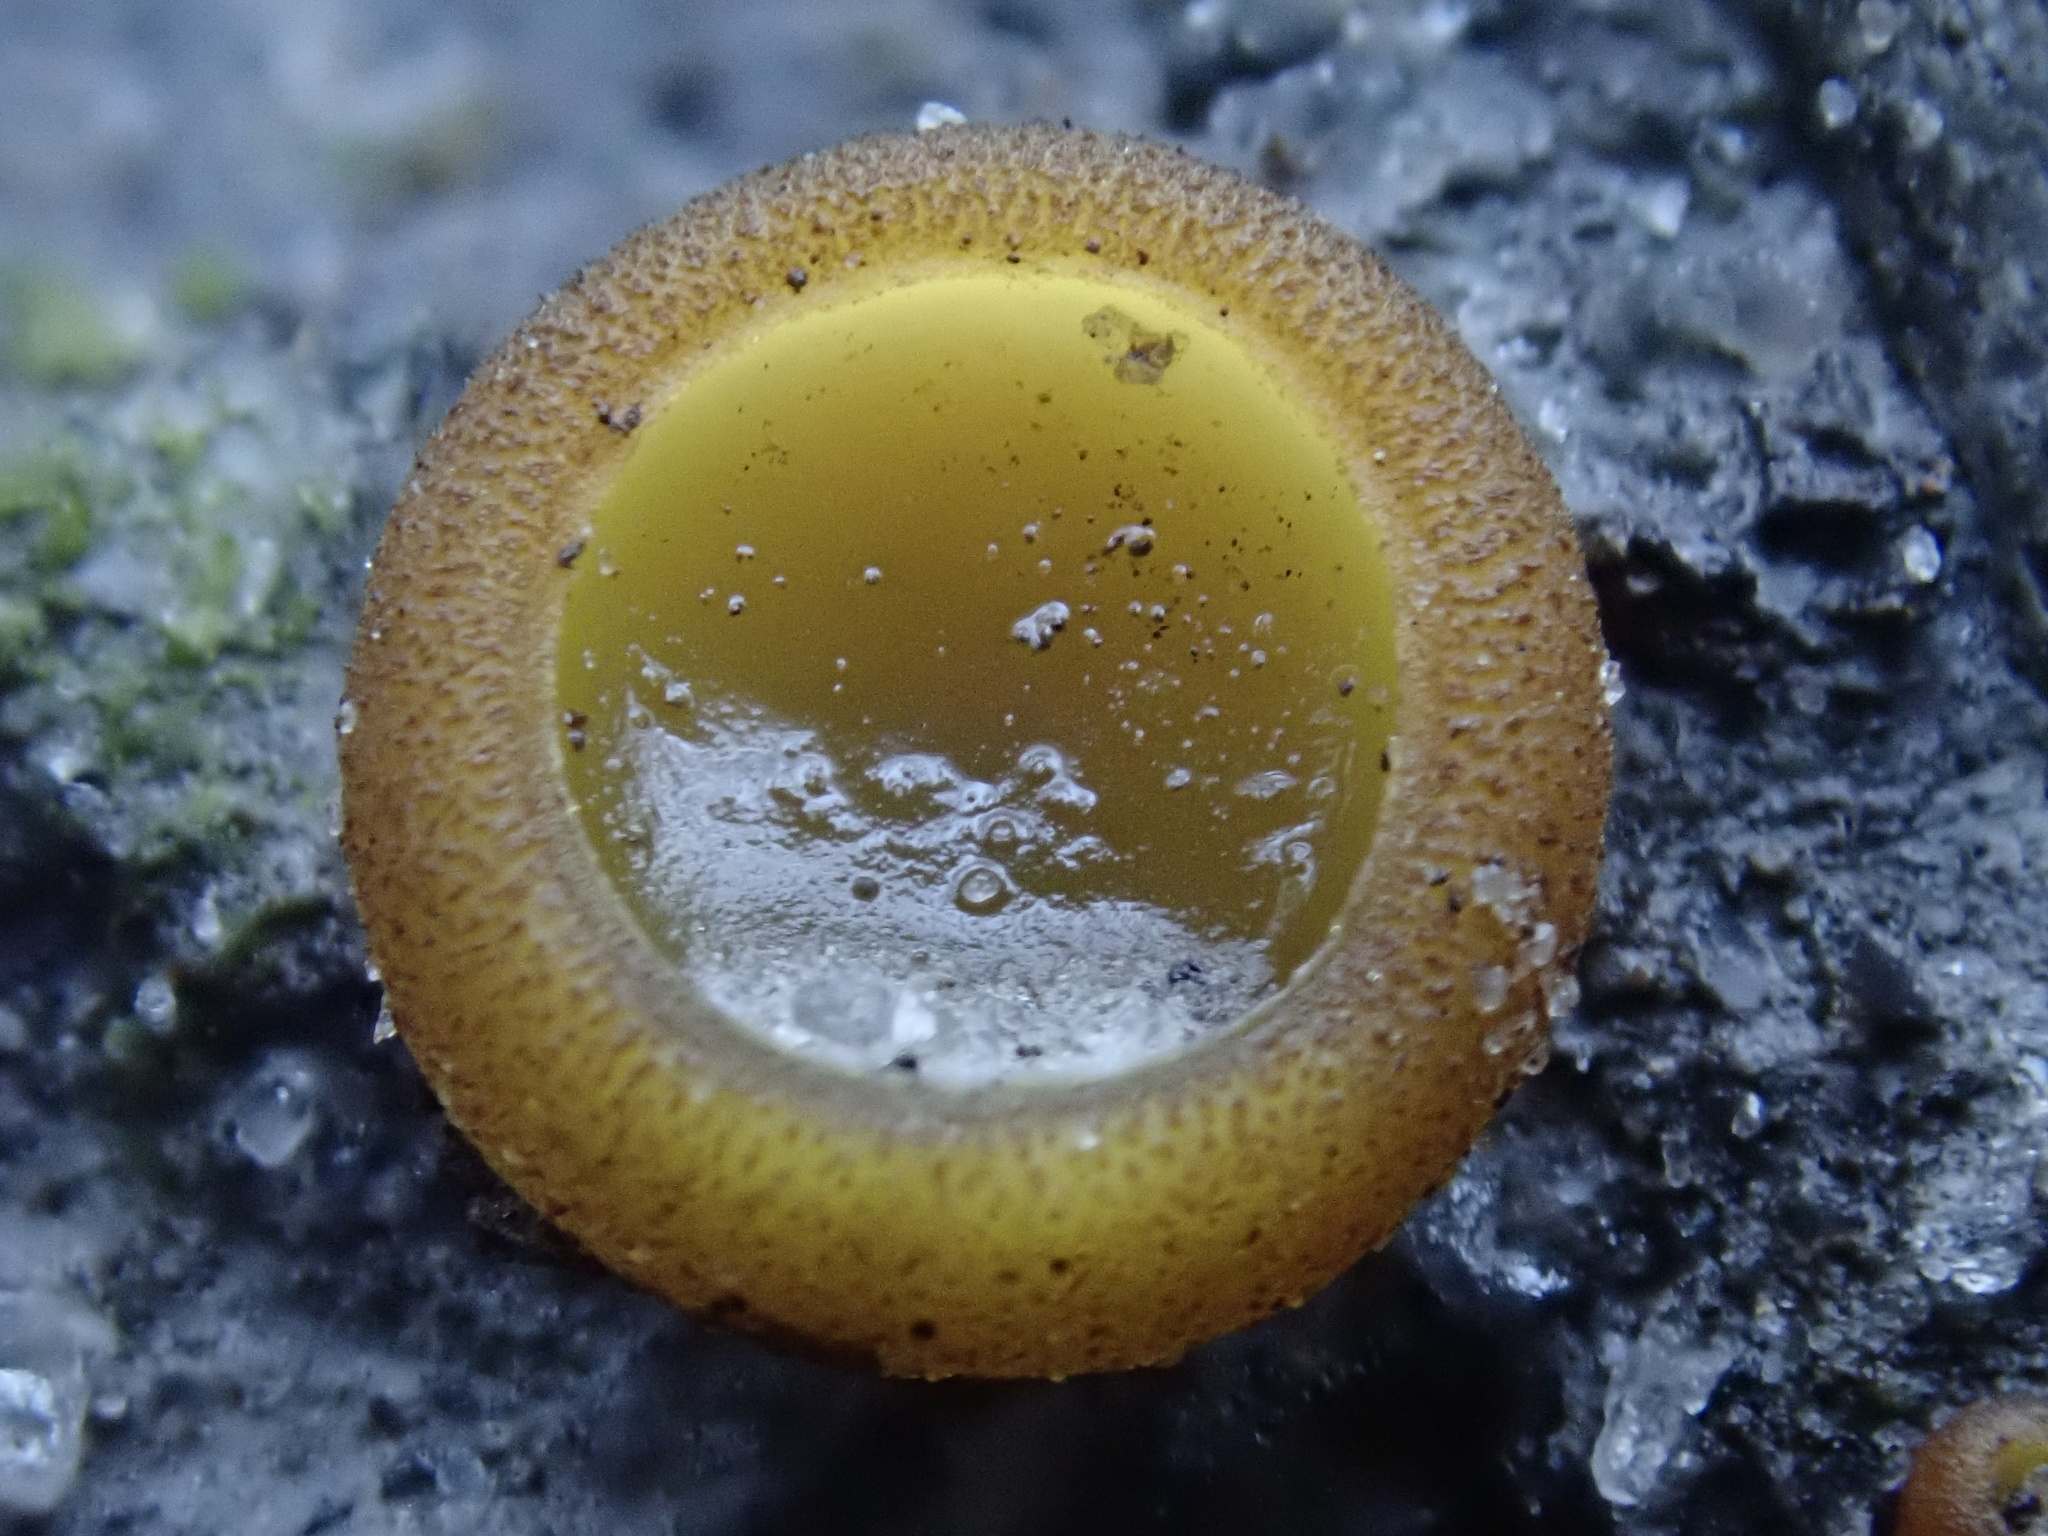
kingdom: Fungi
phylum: Ascomycota
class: Pezizomycetes
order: Pezizales
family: Pyronemataceae
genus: Aleurina
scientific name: Aleurina ferruginea
